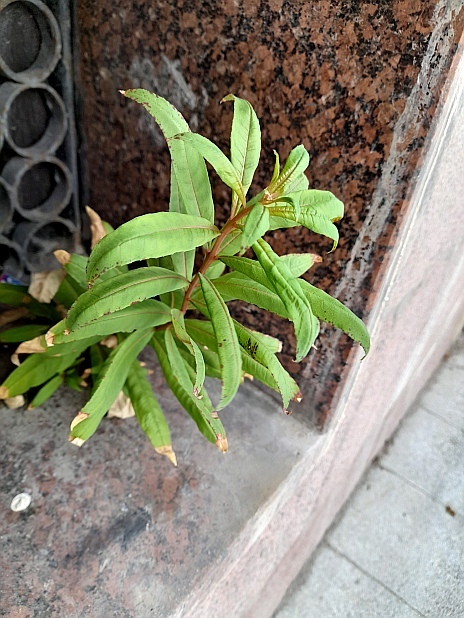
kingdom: Plantae
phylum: Tracheophyta
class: Magnoliopsida
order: Myrtales
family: Onagraceae
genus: Chamaenerion
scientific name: Chamaenerion angustifolium
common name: Fireweed
